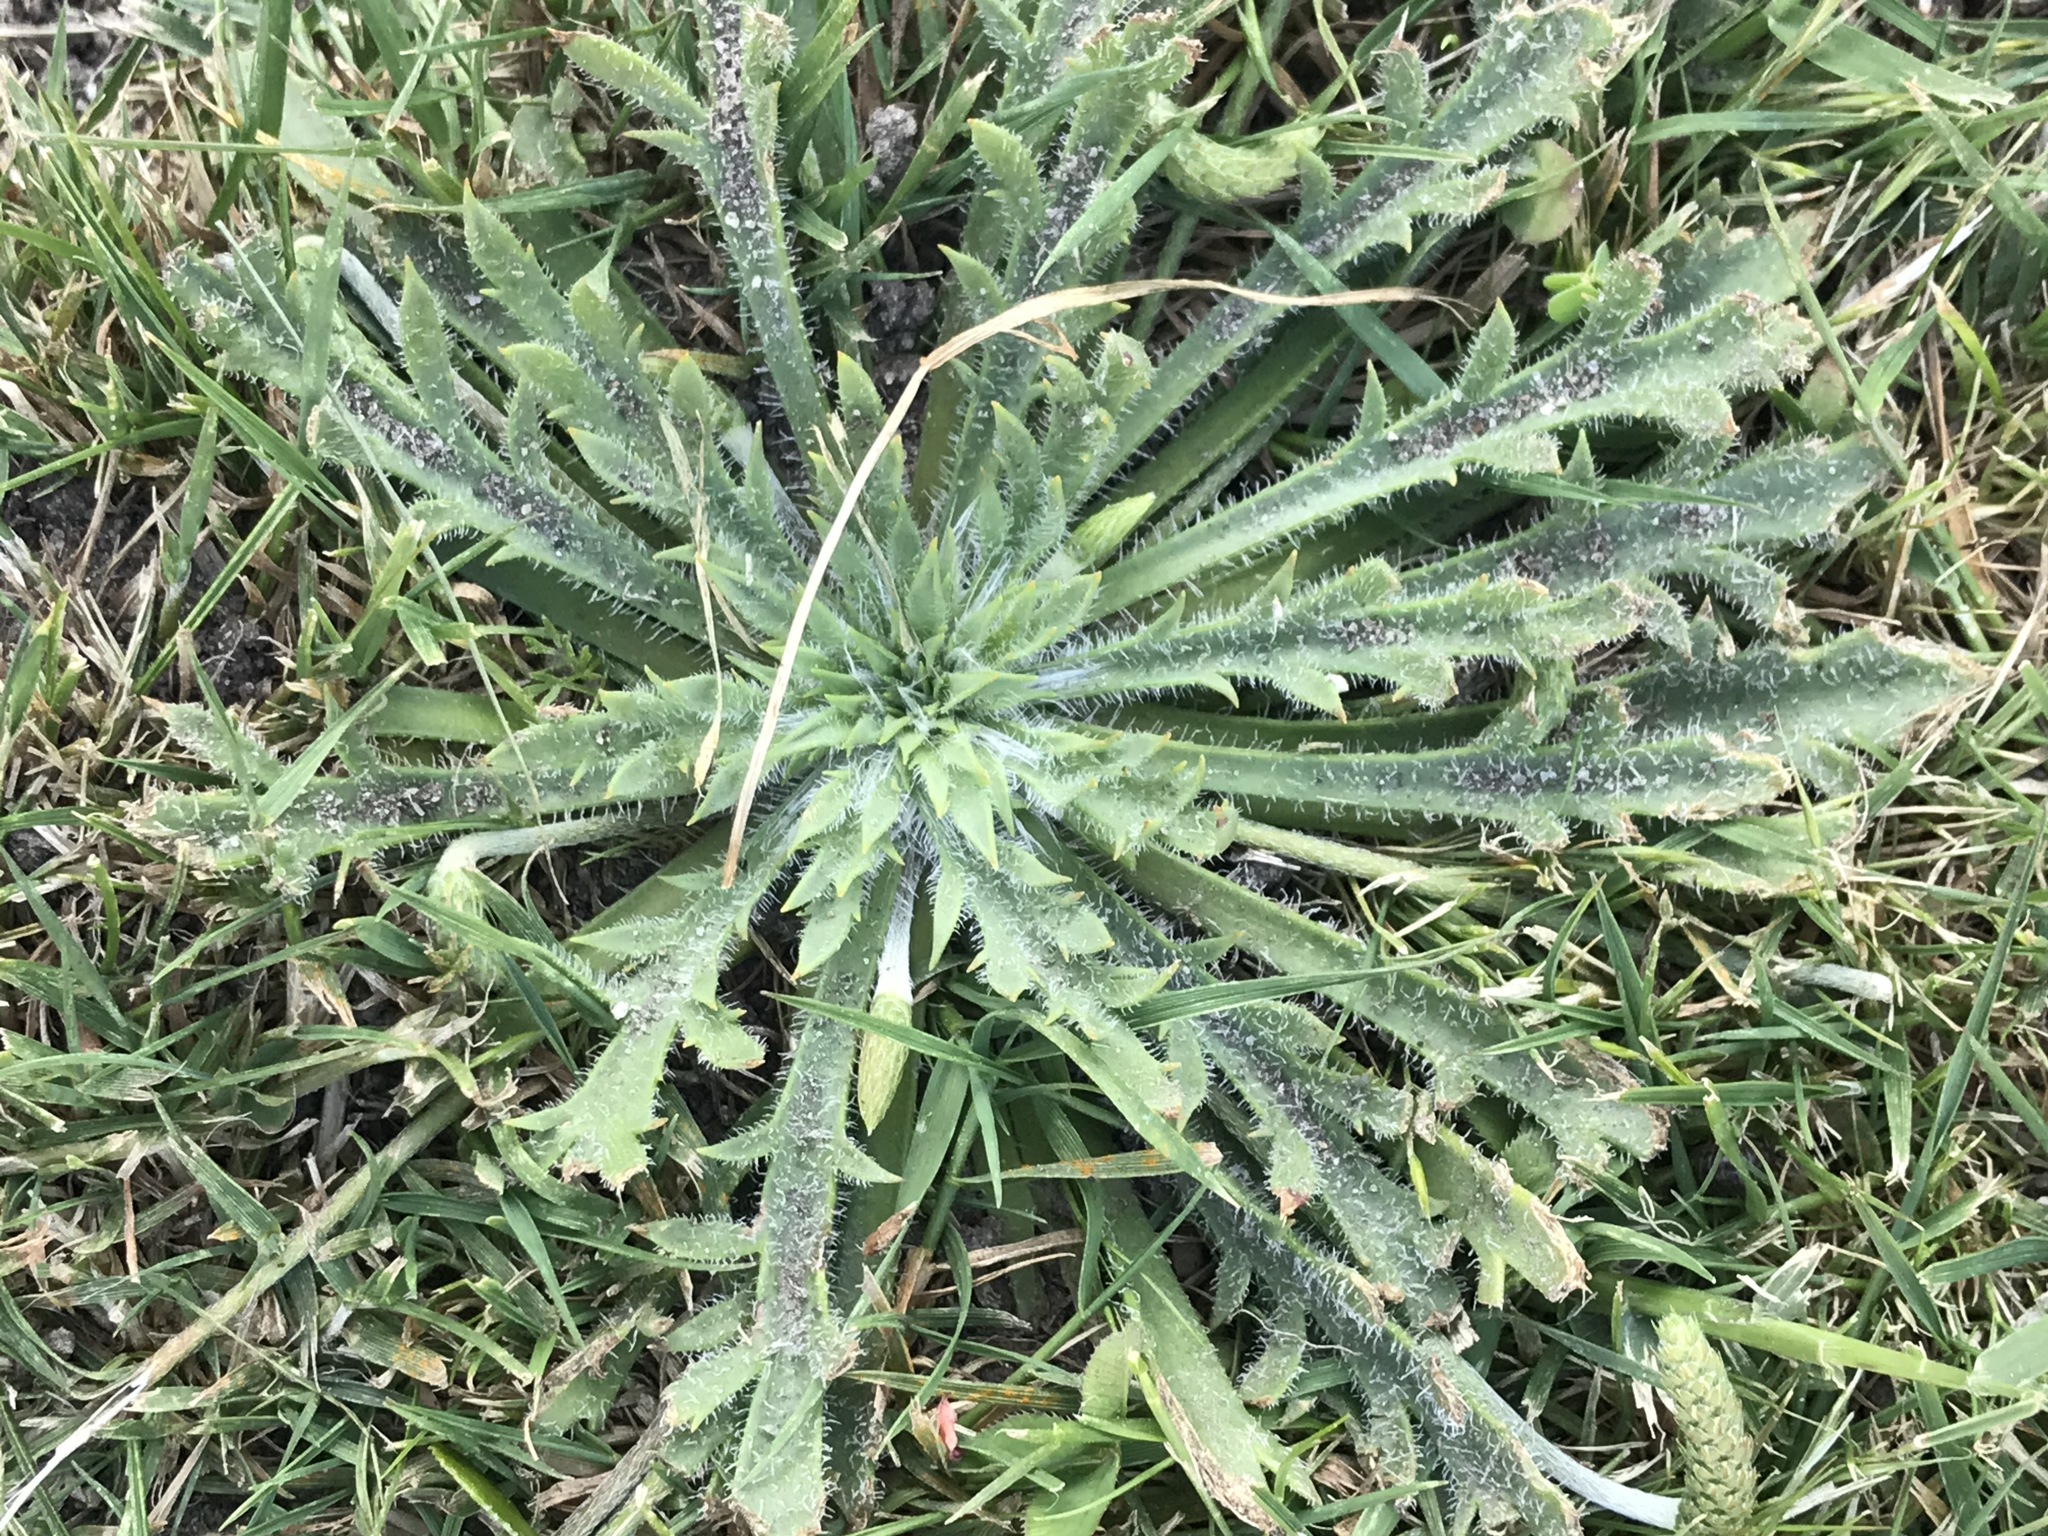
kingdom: Plantae
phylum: Tracheophyta
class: Magnoliopsida
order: Lamiales
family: Plantaginaceae
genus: Plantago
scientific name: Plantago coronopus
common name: Buck's-horn plantain
